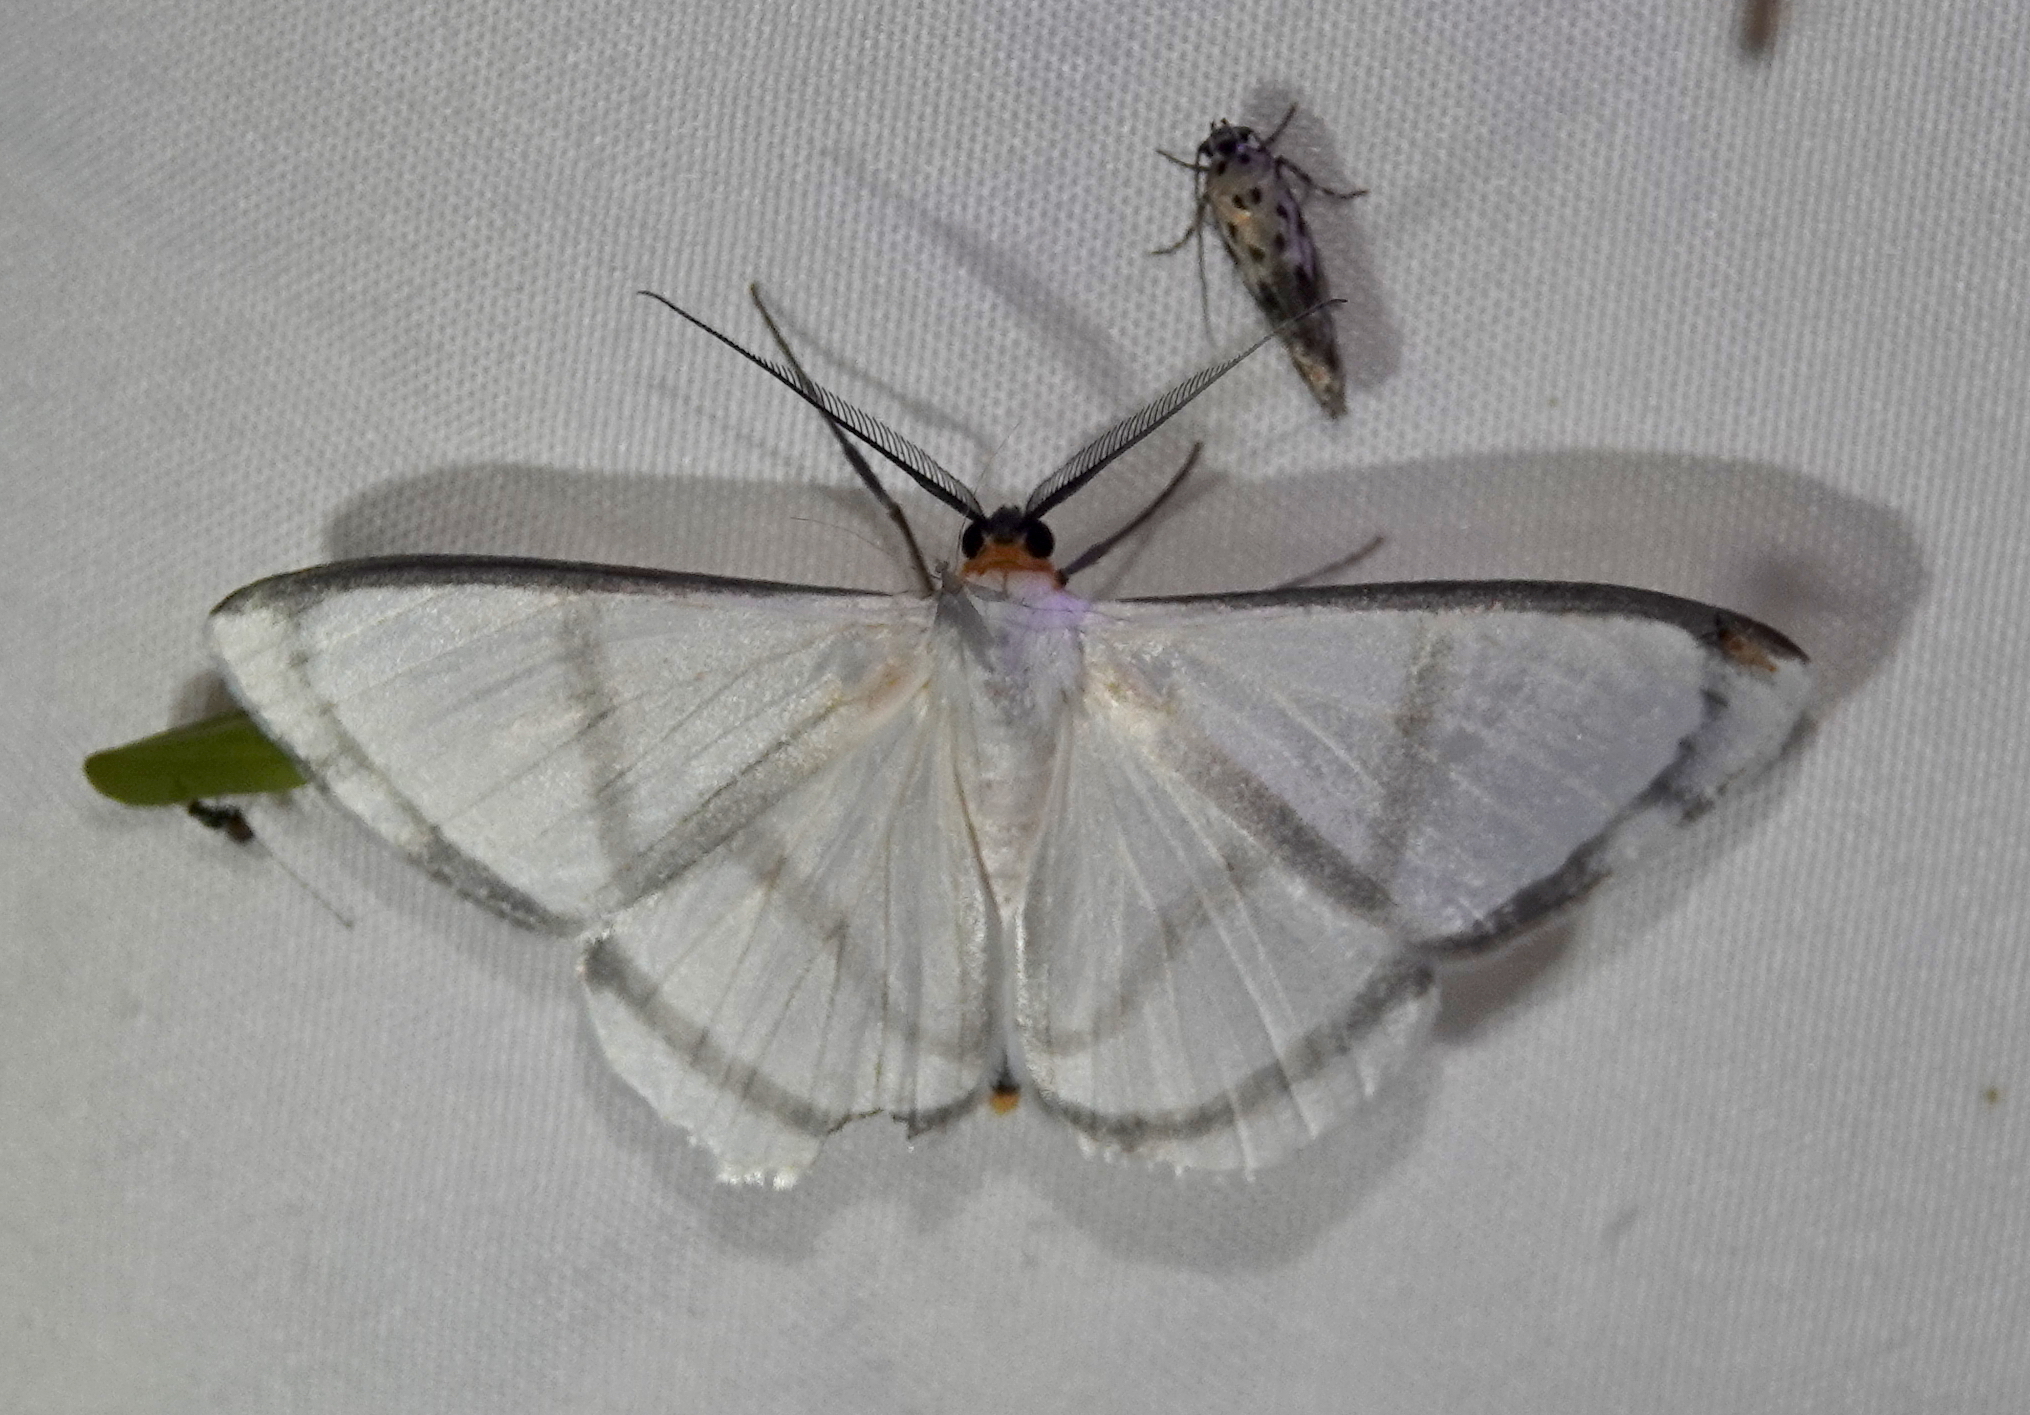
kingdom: Animalia
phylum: Arthropoda
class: Insecta
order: Lepidoptera
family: Geometridae
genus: Perigramma
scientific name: Perigramma repetita
